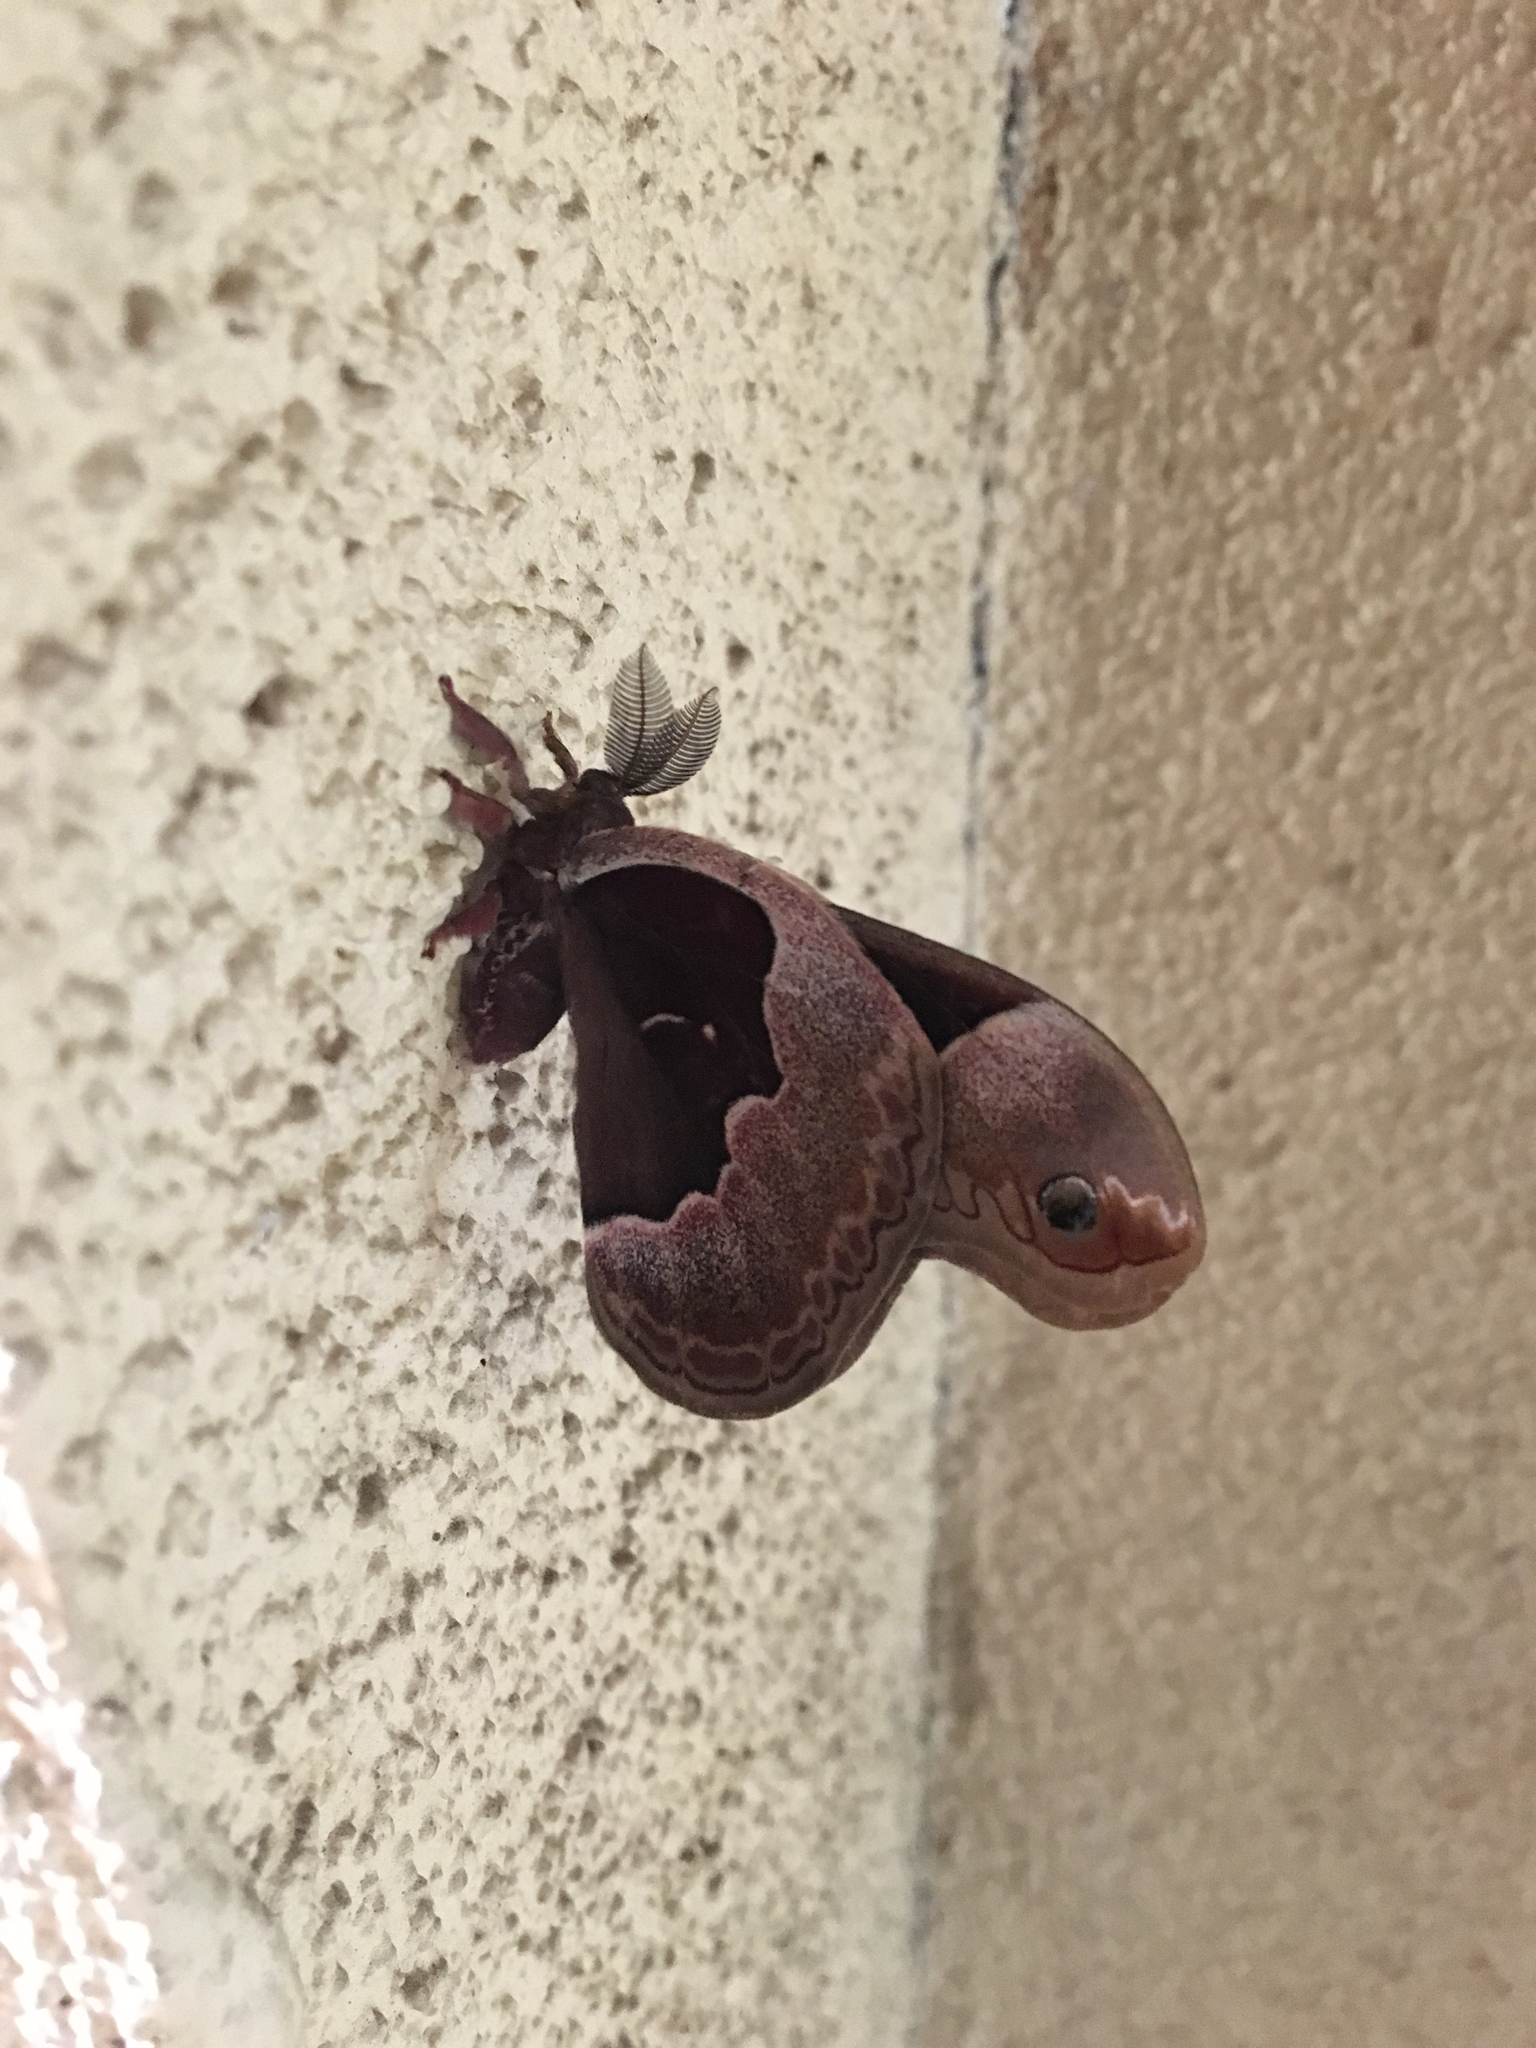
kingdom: Animalia
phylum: Arthropoda
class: Insecta
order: Lepidoptera
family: Saturniidae
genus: Callosamia
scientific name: Callosamia promethea
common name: Promethea silkmoth
